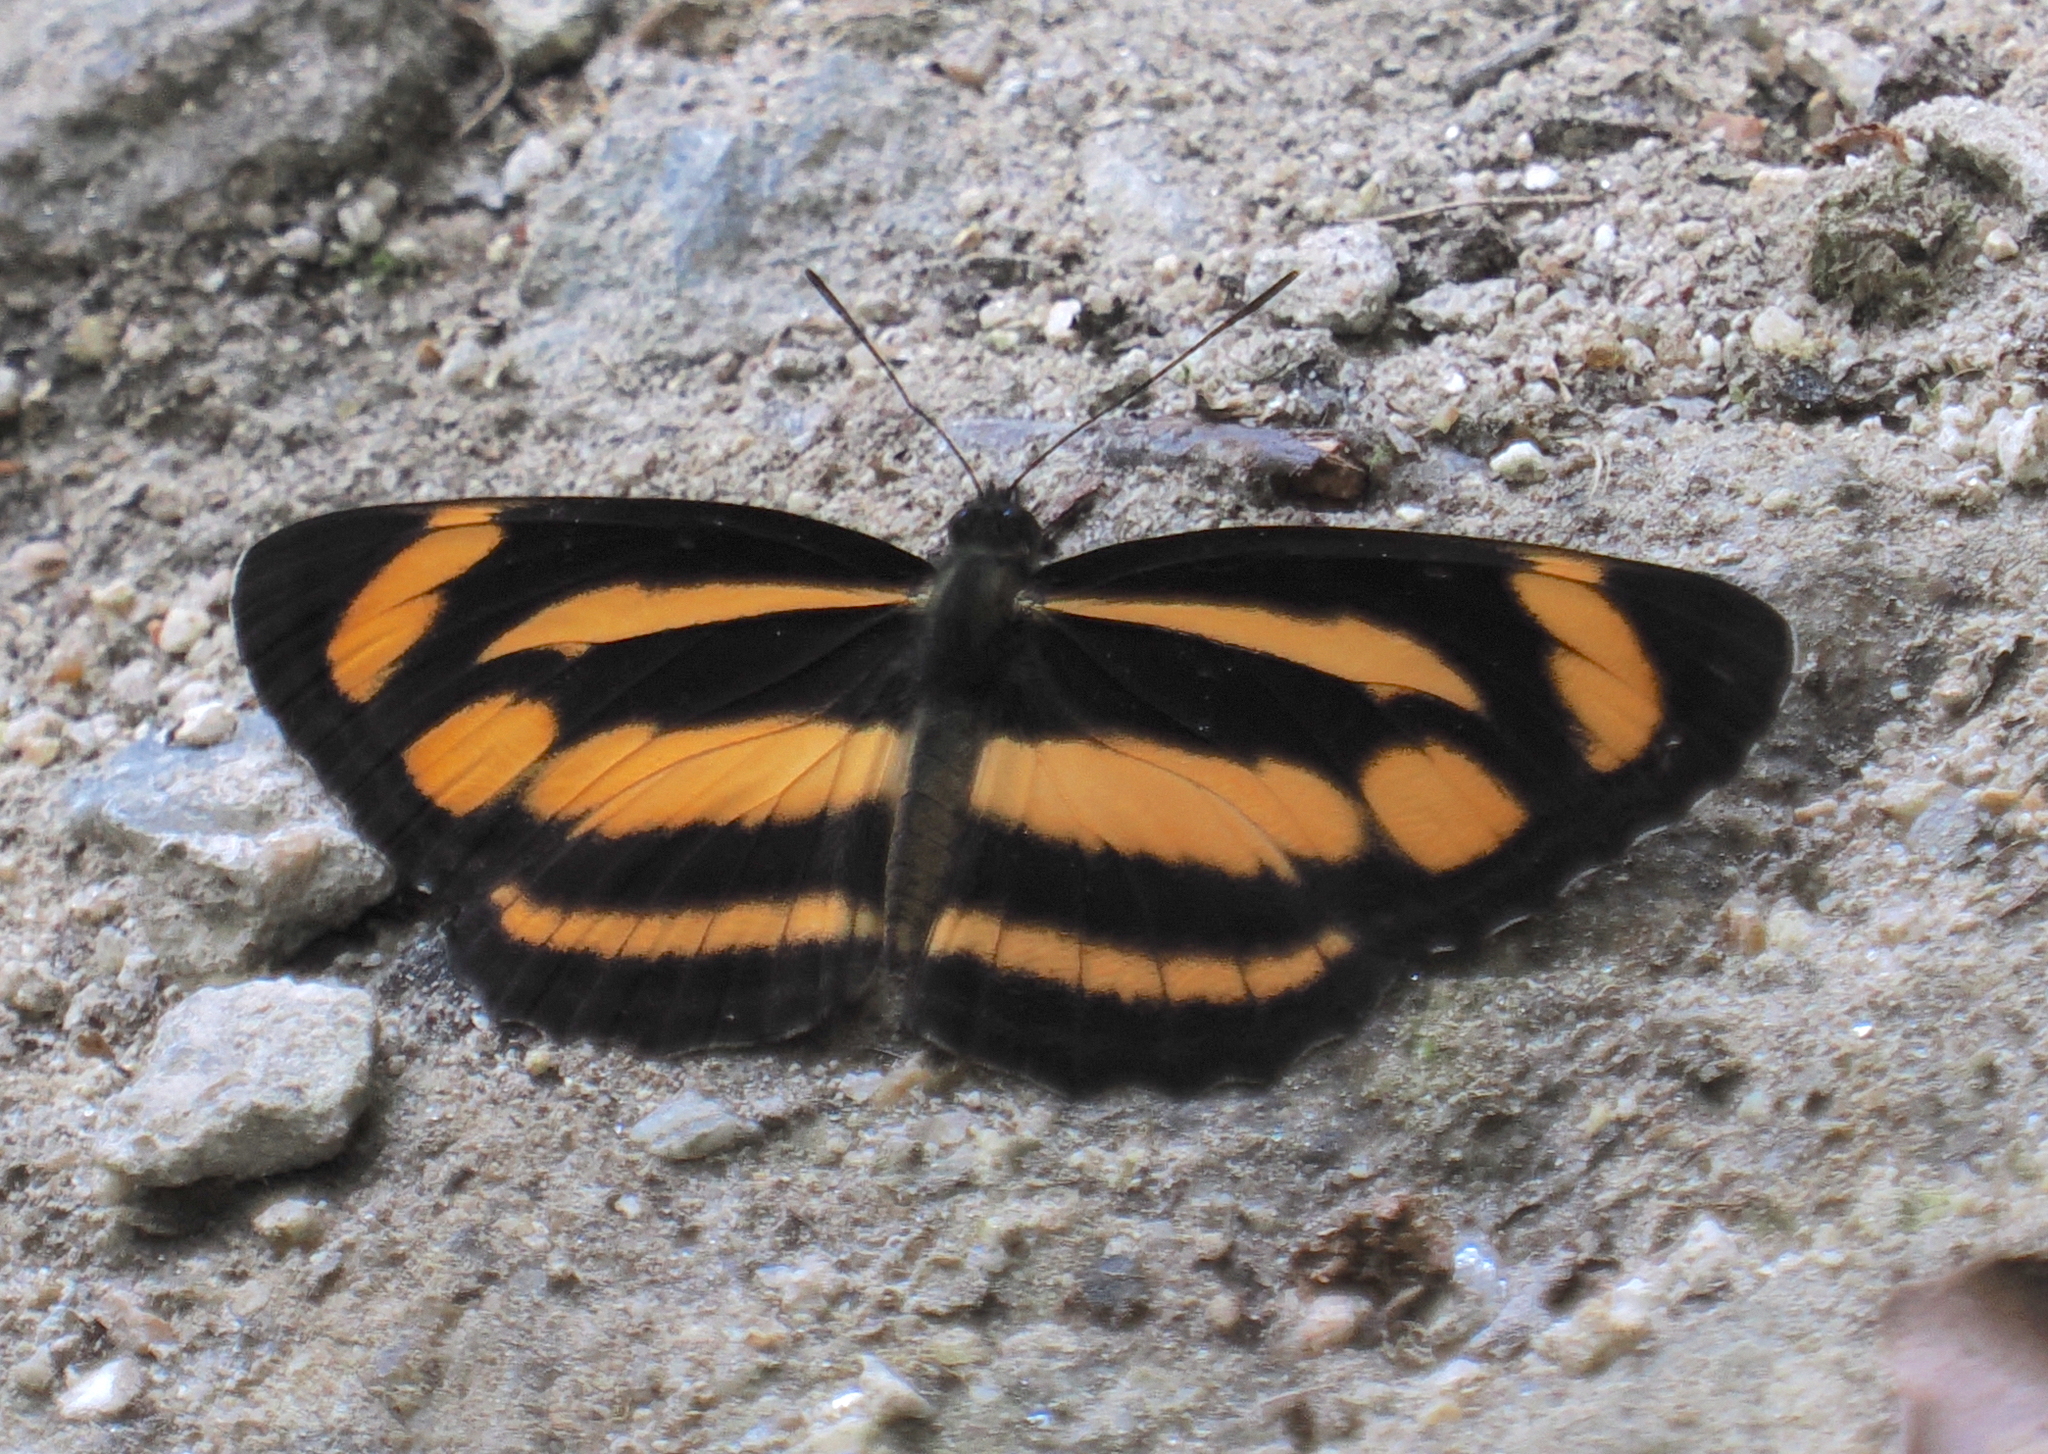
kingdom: Animalia
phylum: Arthropoda
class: Insecta
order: Lepidoptera
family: Nymphalidae
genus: Neptis
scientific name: Neptis zaida
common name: Variable sailor
